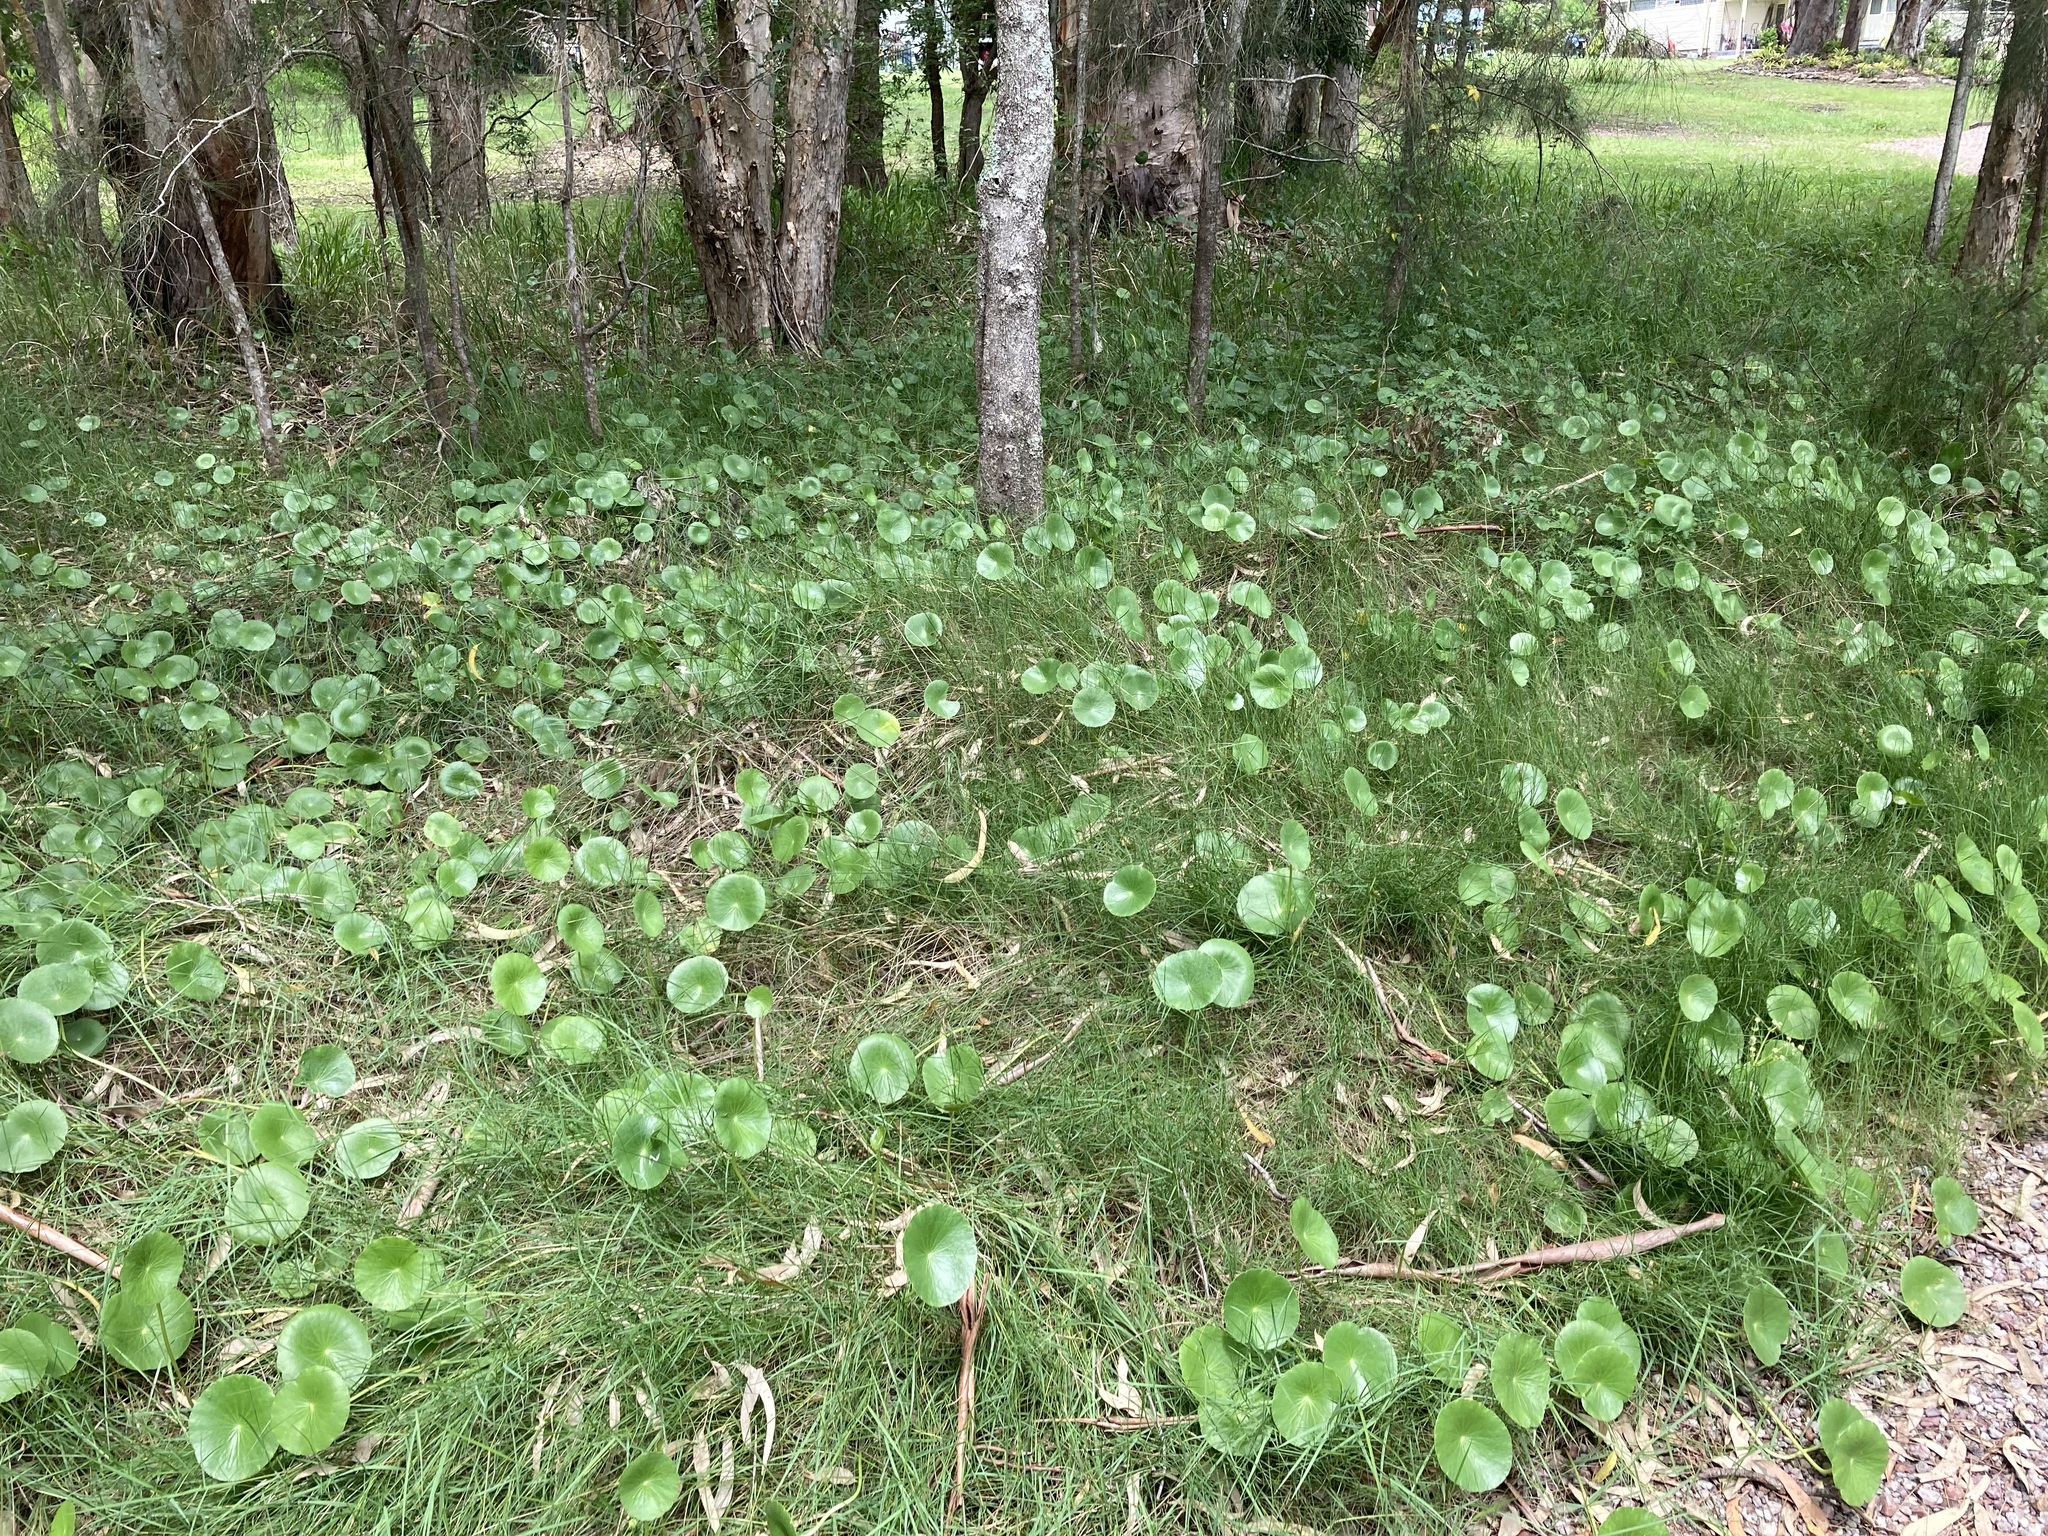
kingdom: Plantae
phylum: Tracheophyta
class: Magnoliopsida
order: Apiales
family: Araliaceae
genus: Hydrocotyle
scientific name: Hydrocotyle bonariensis
